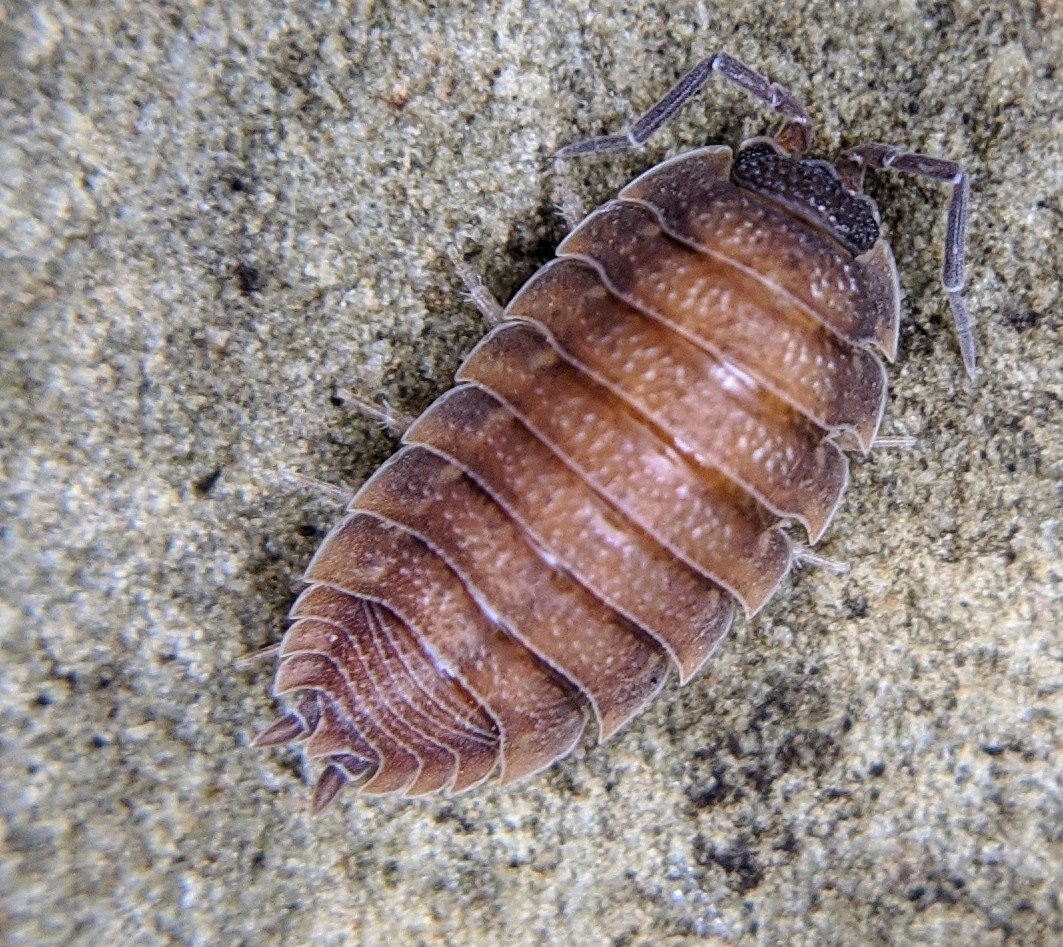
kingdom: Animalia
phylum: Arthropoda
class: Malacostraca
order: Isopoda
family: Porcellionidae
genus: Porcellio
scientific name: Porcellio scaber
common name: Common rough woodlouse
